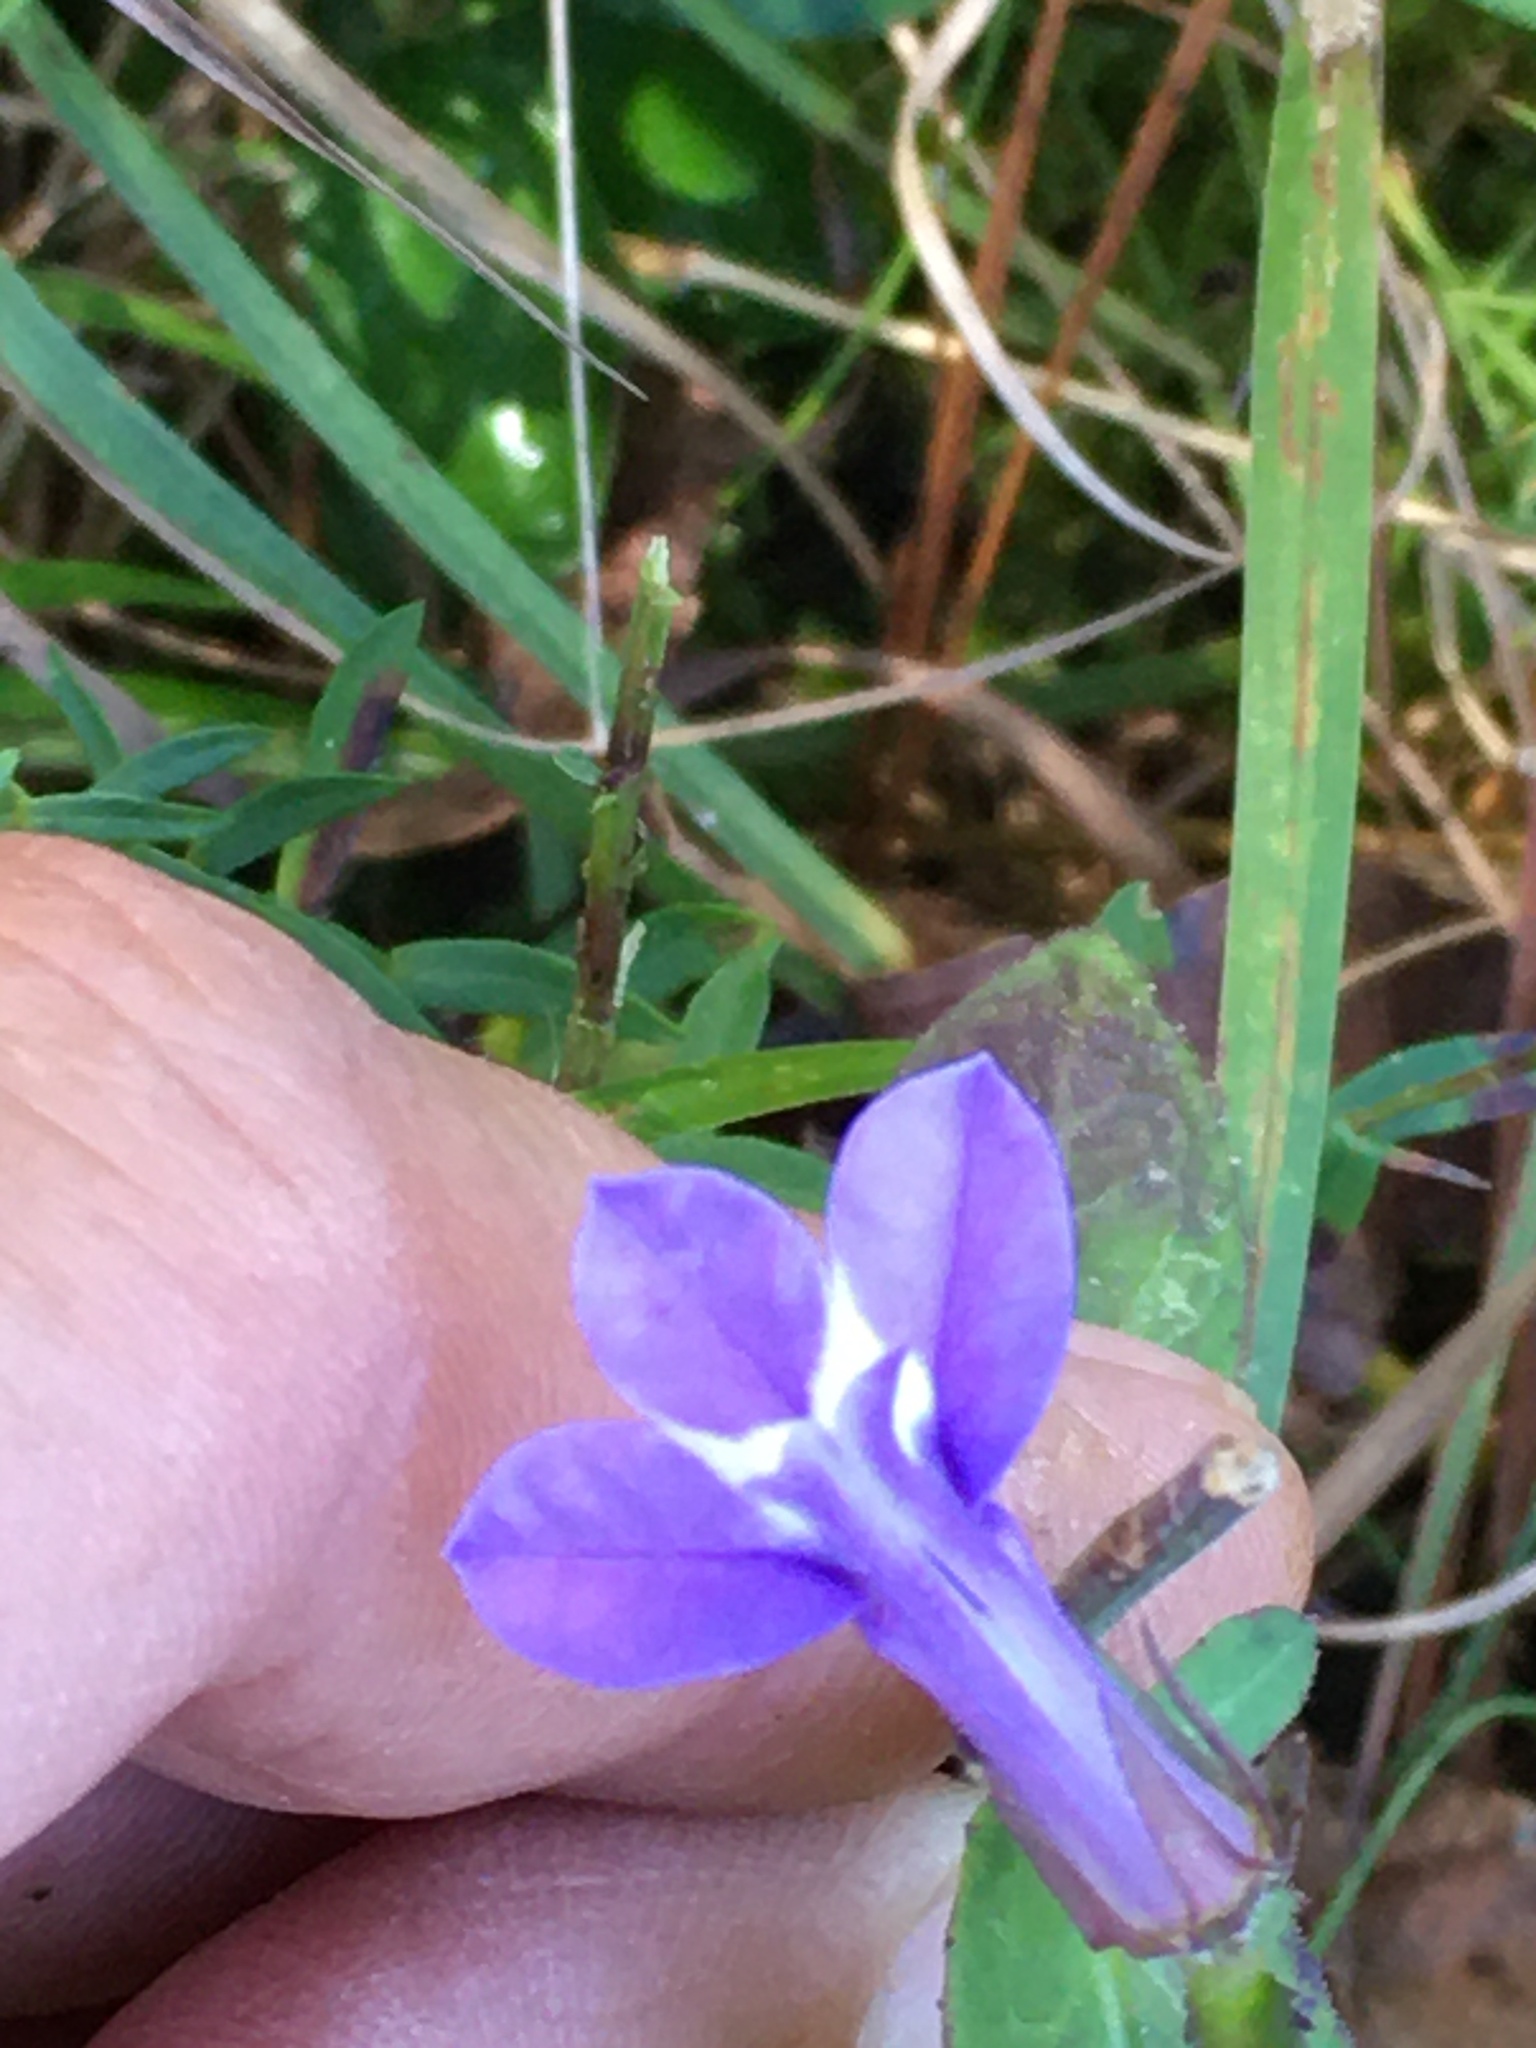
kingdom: Plantae
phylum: Tracheophyta
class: Magnoliopsida
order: Asterales
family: Campanulaceae
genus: Lobelia
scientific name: Lobelia puberula
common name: Purple dewdrop
